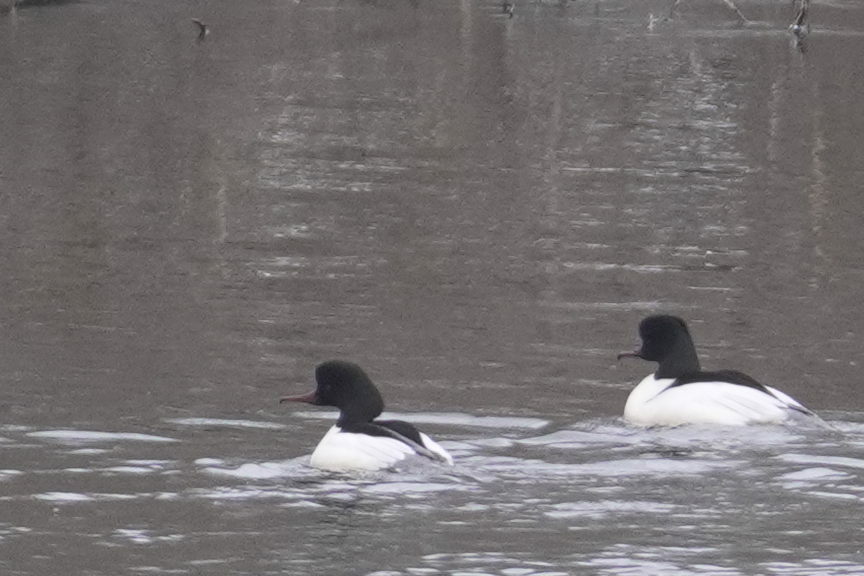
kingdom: Animalia
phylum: Chordata
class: Aves
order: Anseriformes
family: Anatidae
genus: Mergus
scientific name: Mergus merganser
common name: Common merganser
